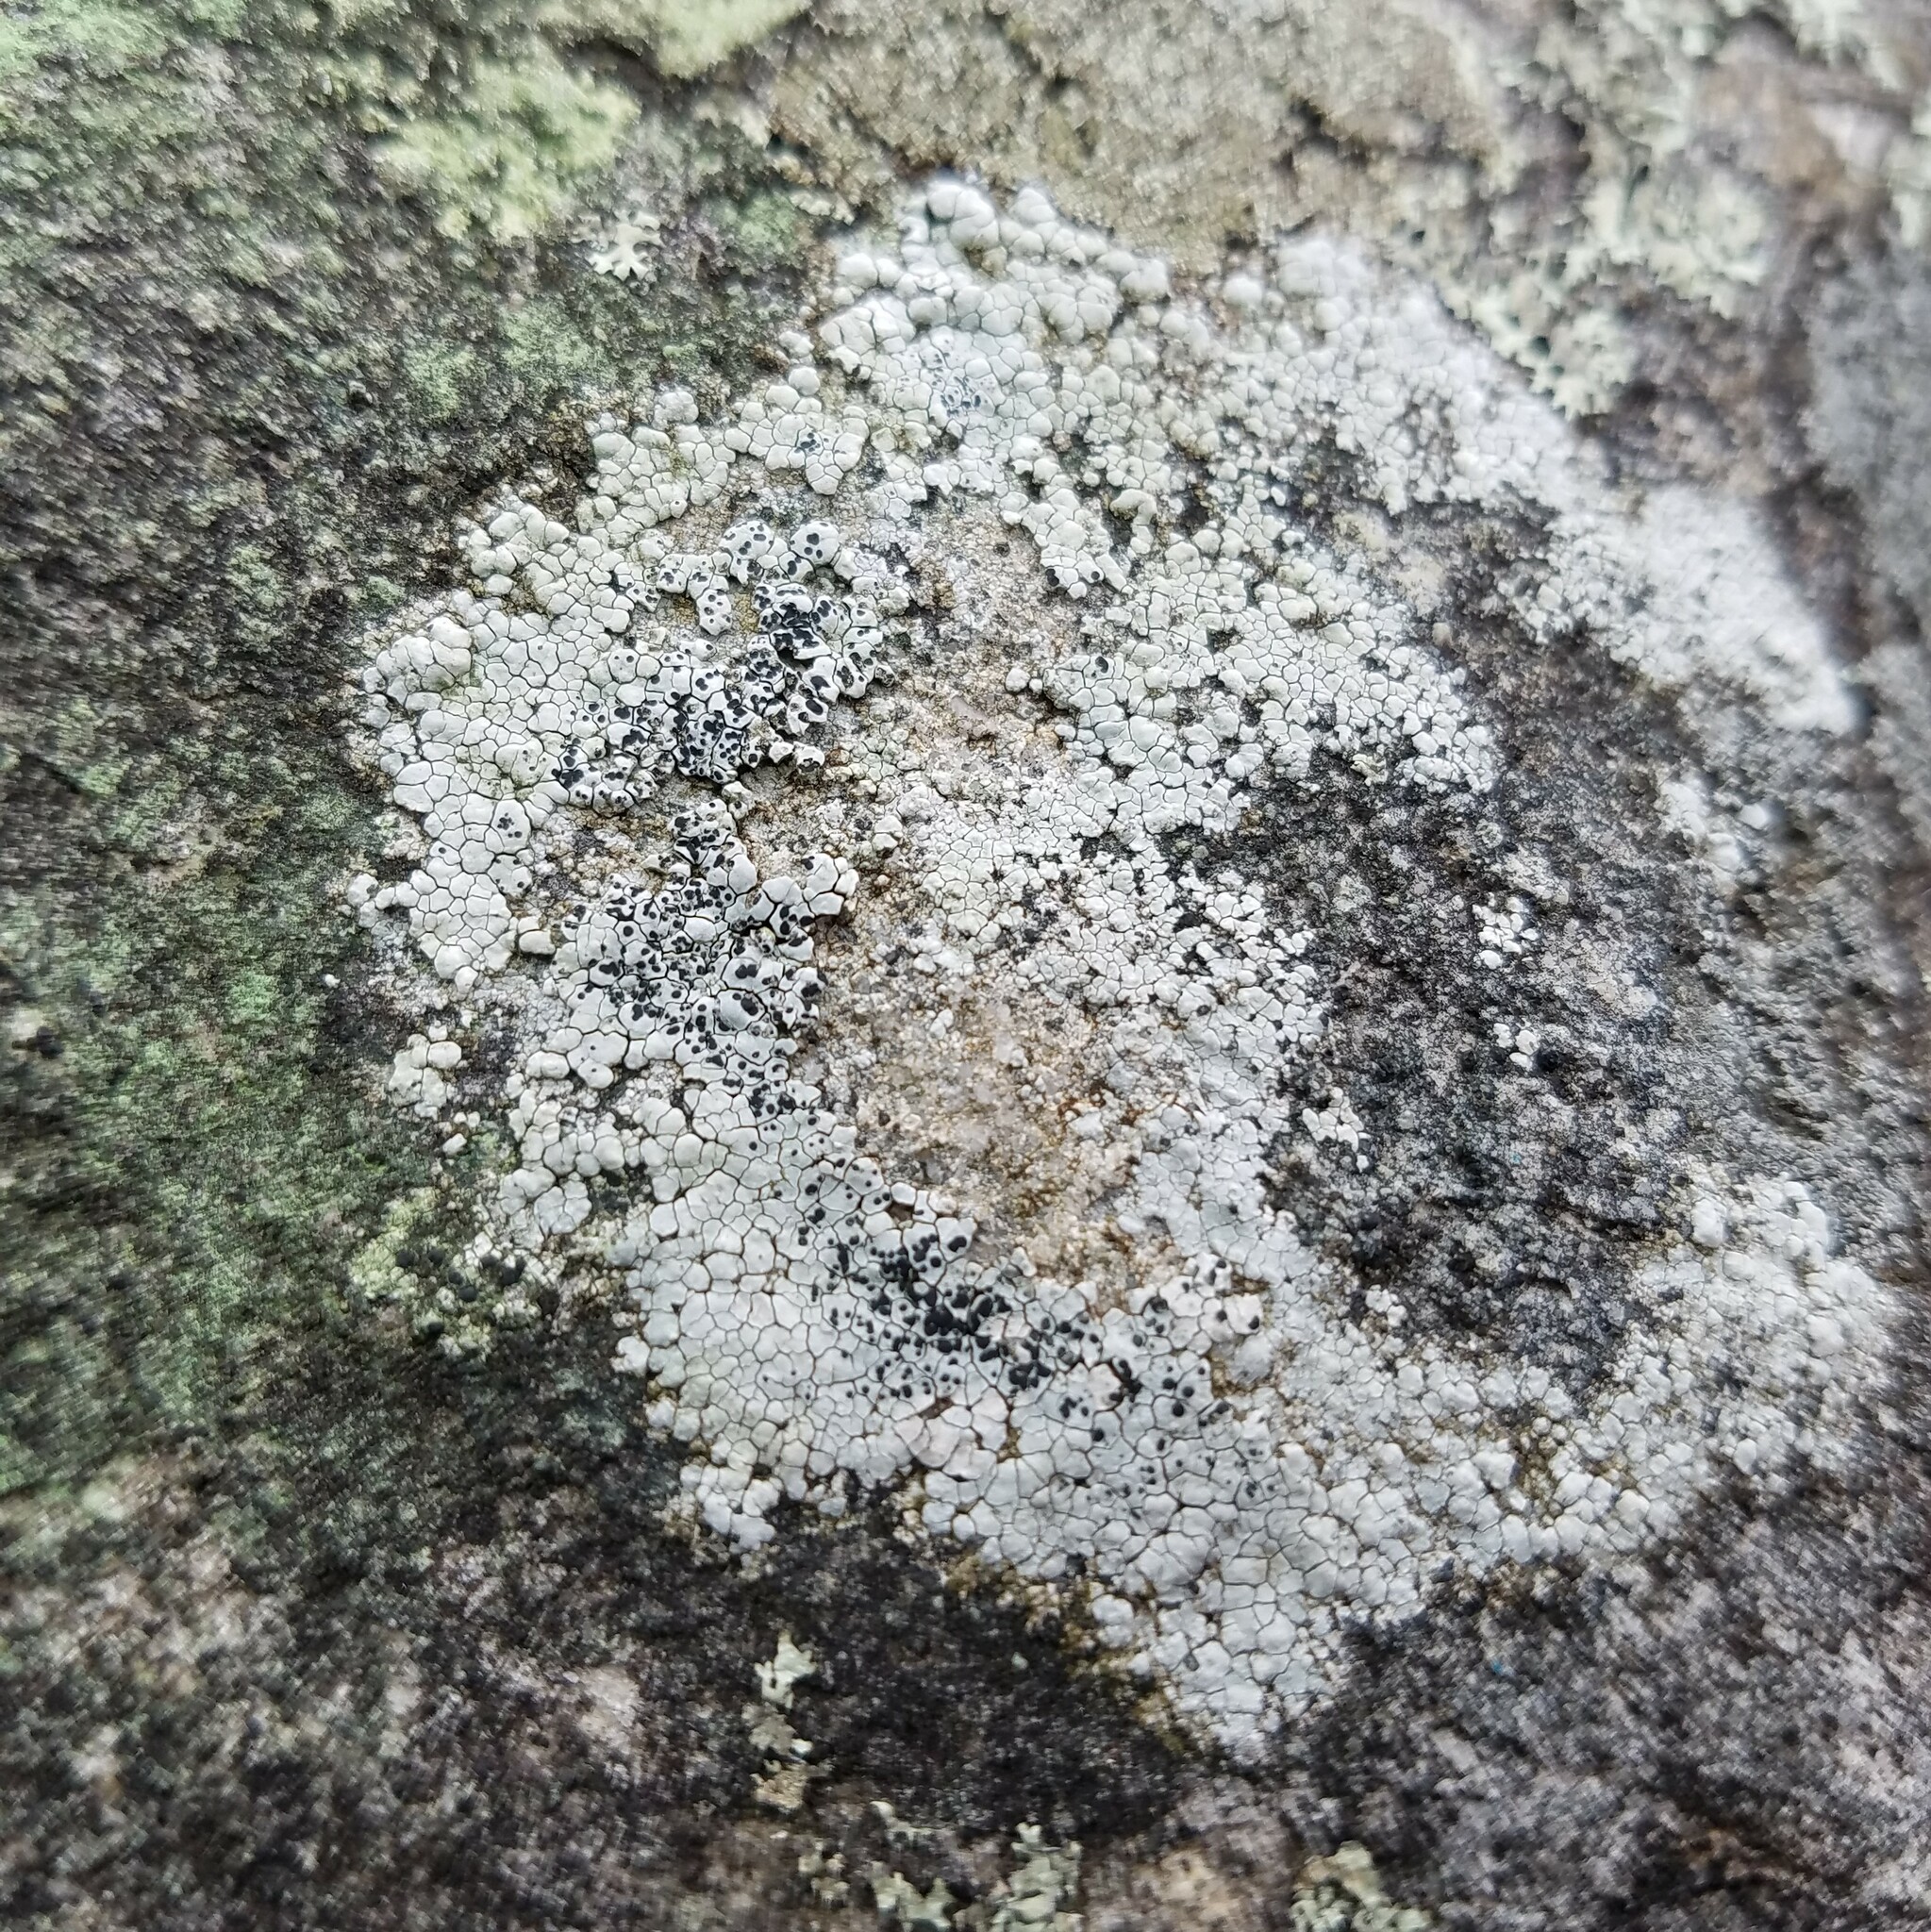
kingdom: Fungi
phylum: Ascomycota
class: Lecanoromycetes
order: Lecanorales
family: Lecanoraceae
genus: Lecanora
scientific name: Lecanora oreinoides
